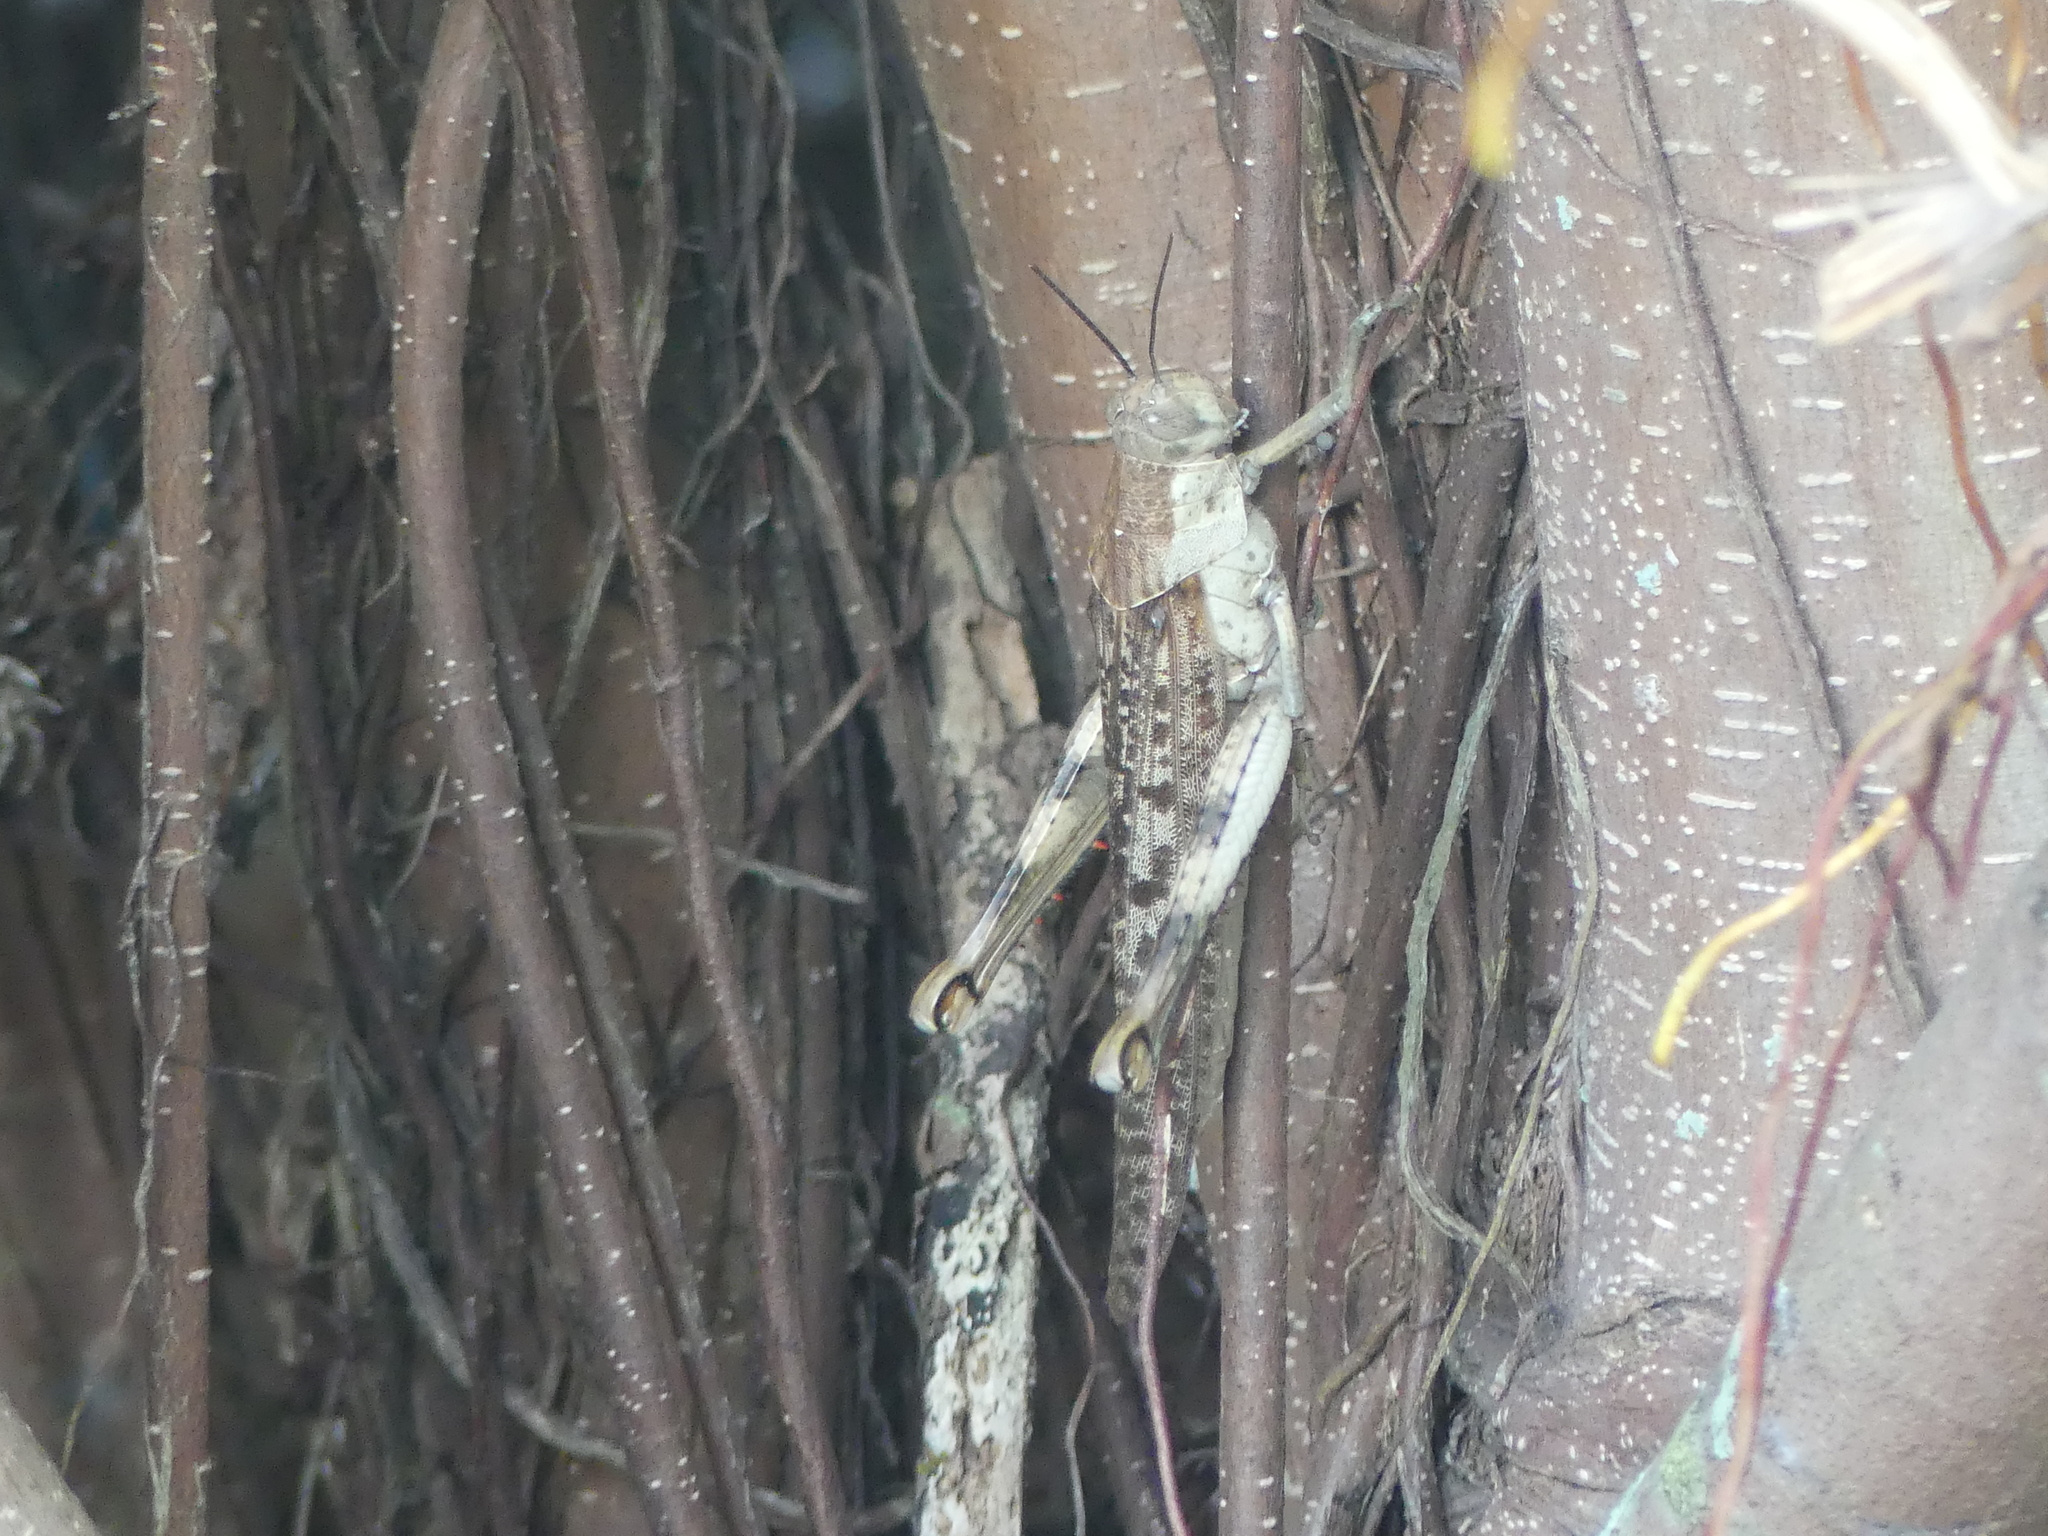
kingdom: Animalia
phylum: Arthropoda
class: Insecta
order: Orthoptera
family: Acrididae
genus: Valanga
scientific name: Valanga irregularis
